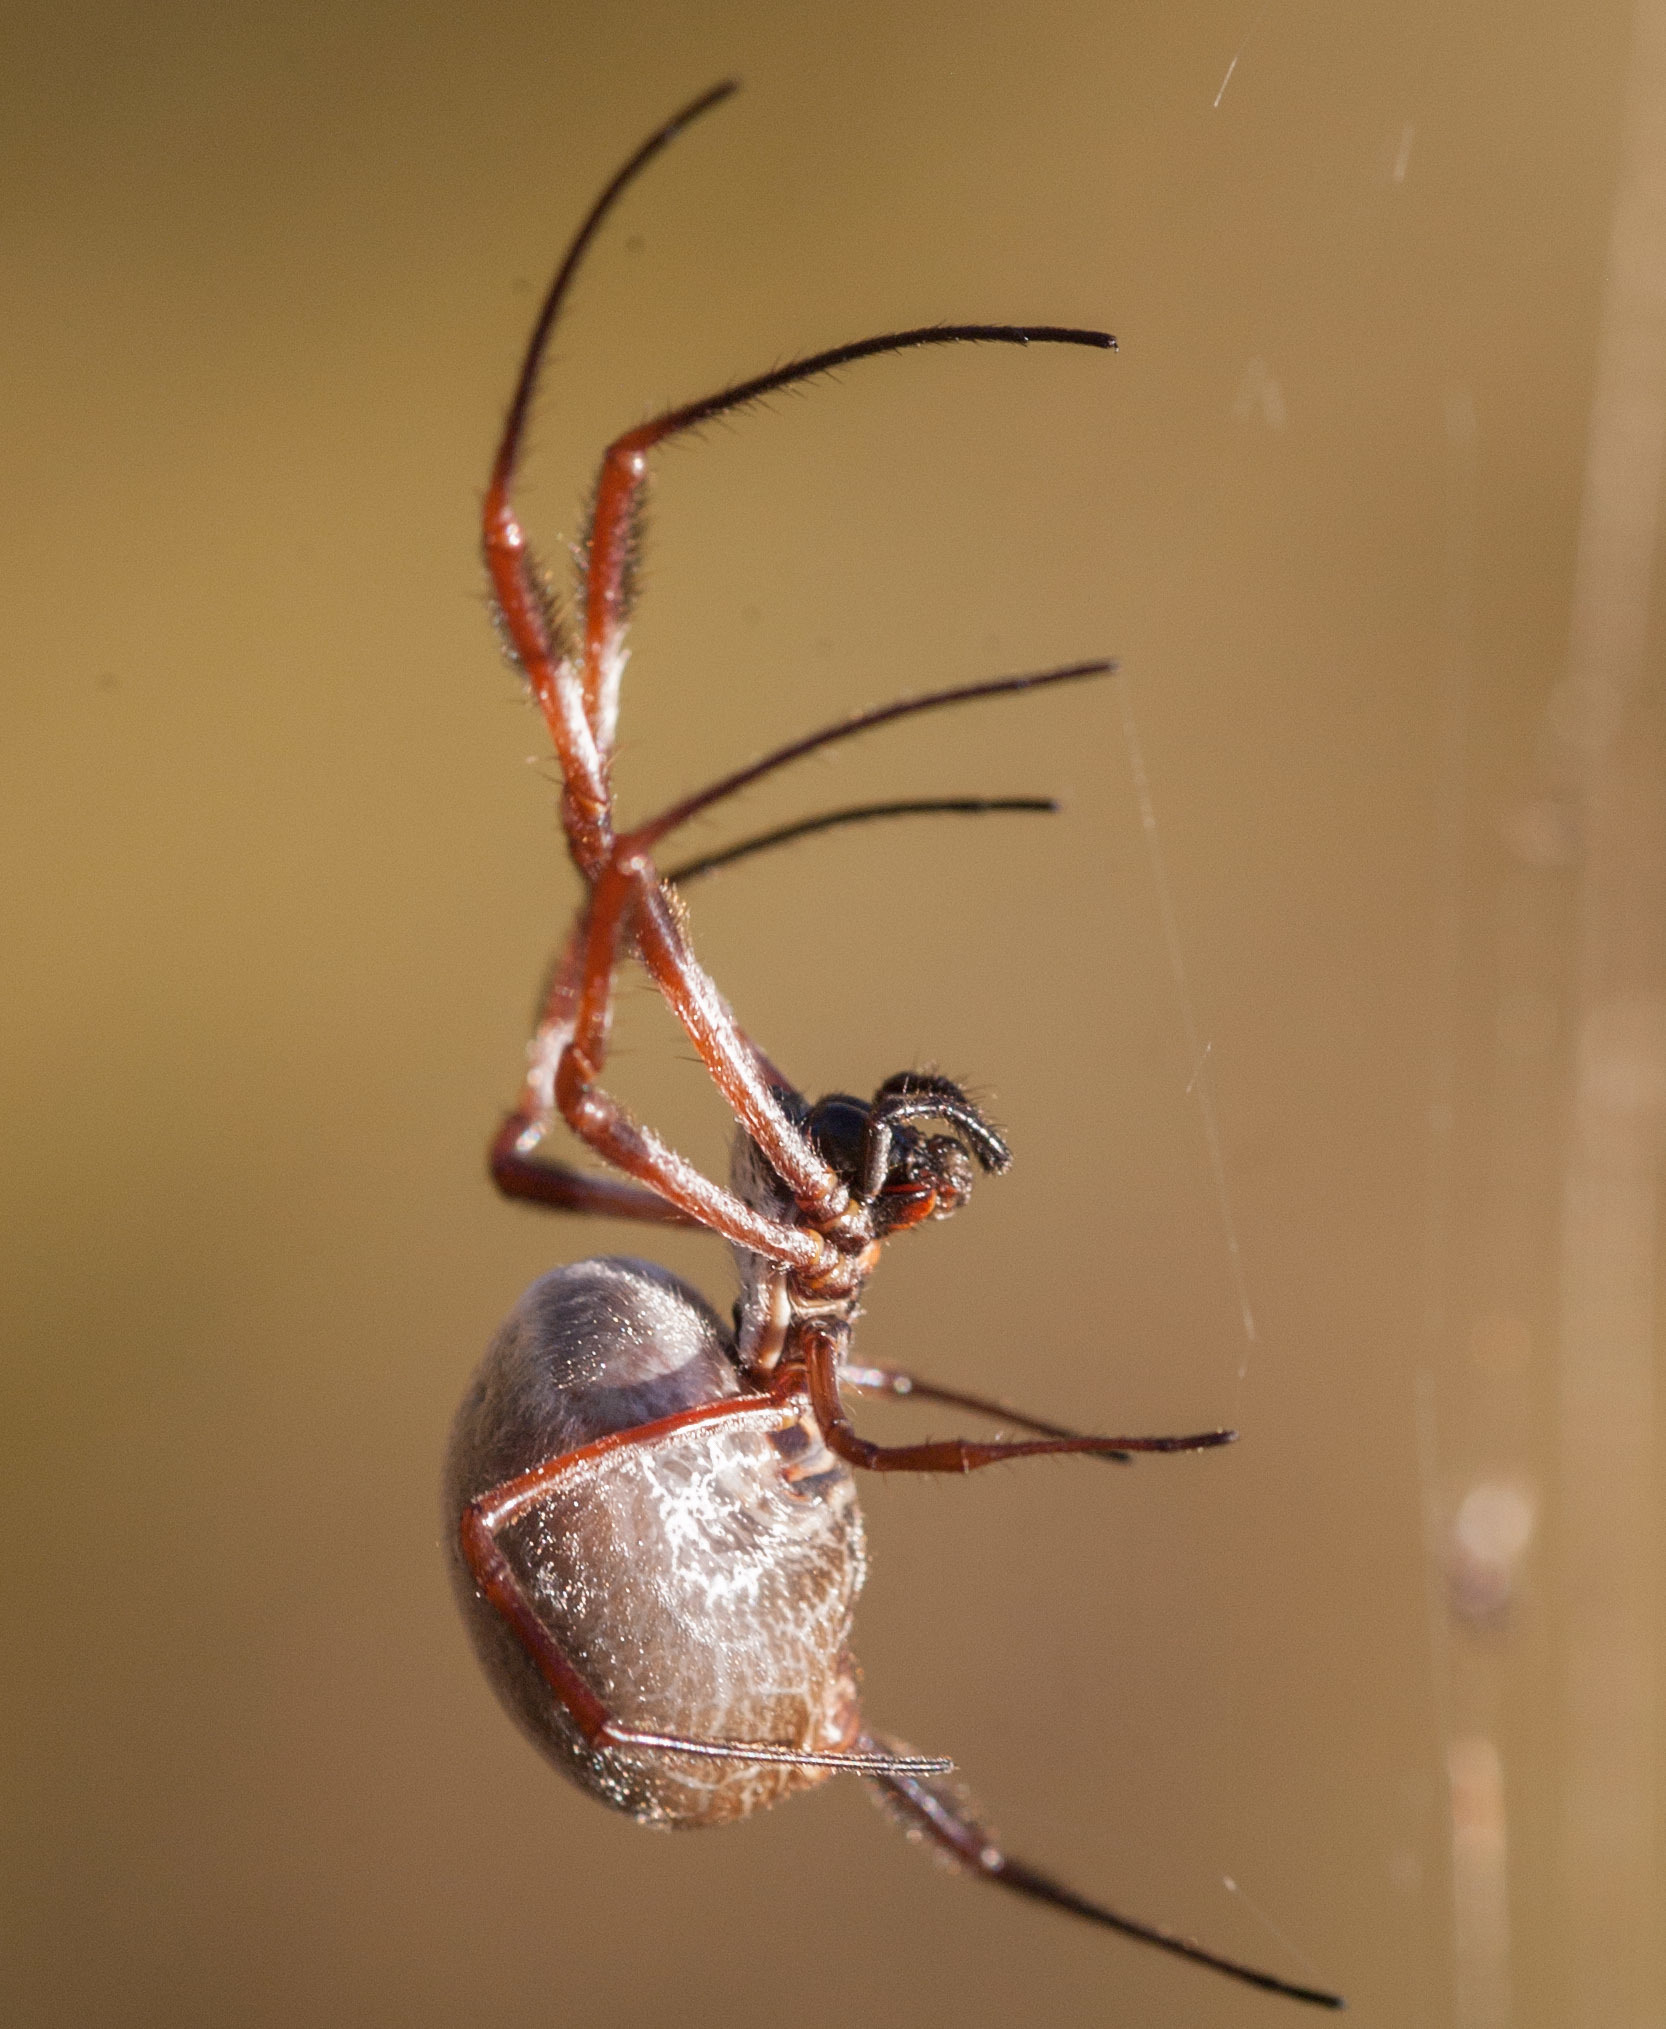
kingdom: Animalia
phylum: Arthropoda
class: Arachnida
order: Araneae
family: Araneidae
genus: Trichonephila
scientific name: Trichonephila edulis
